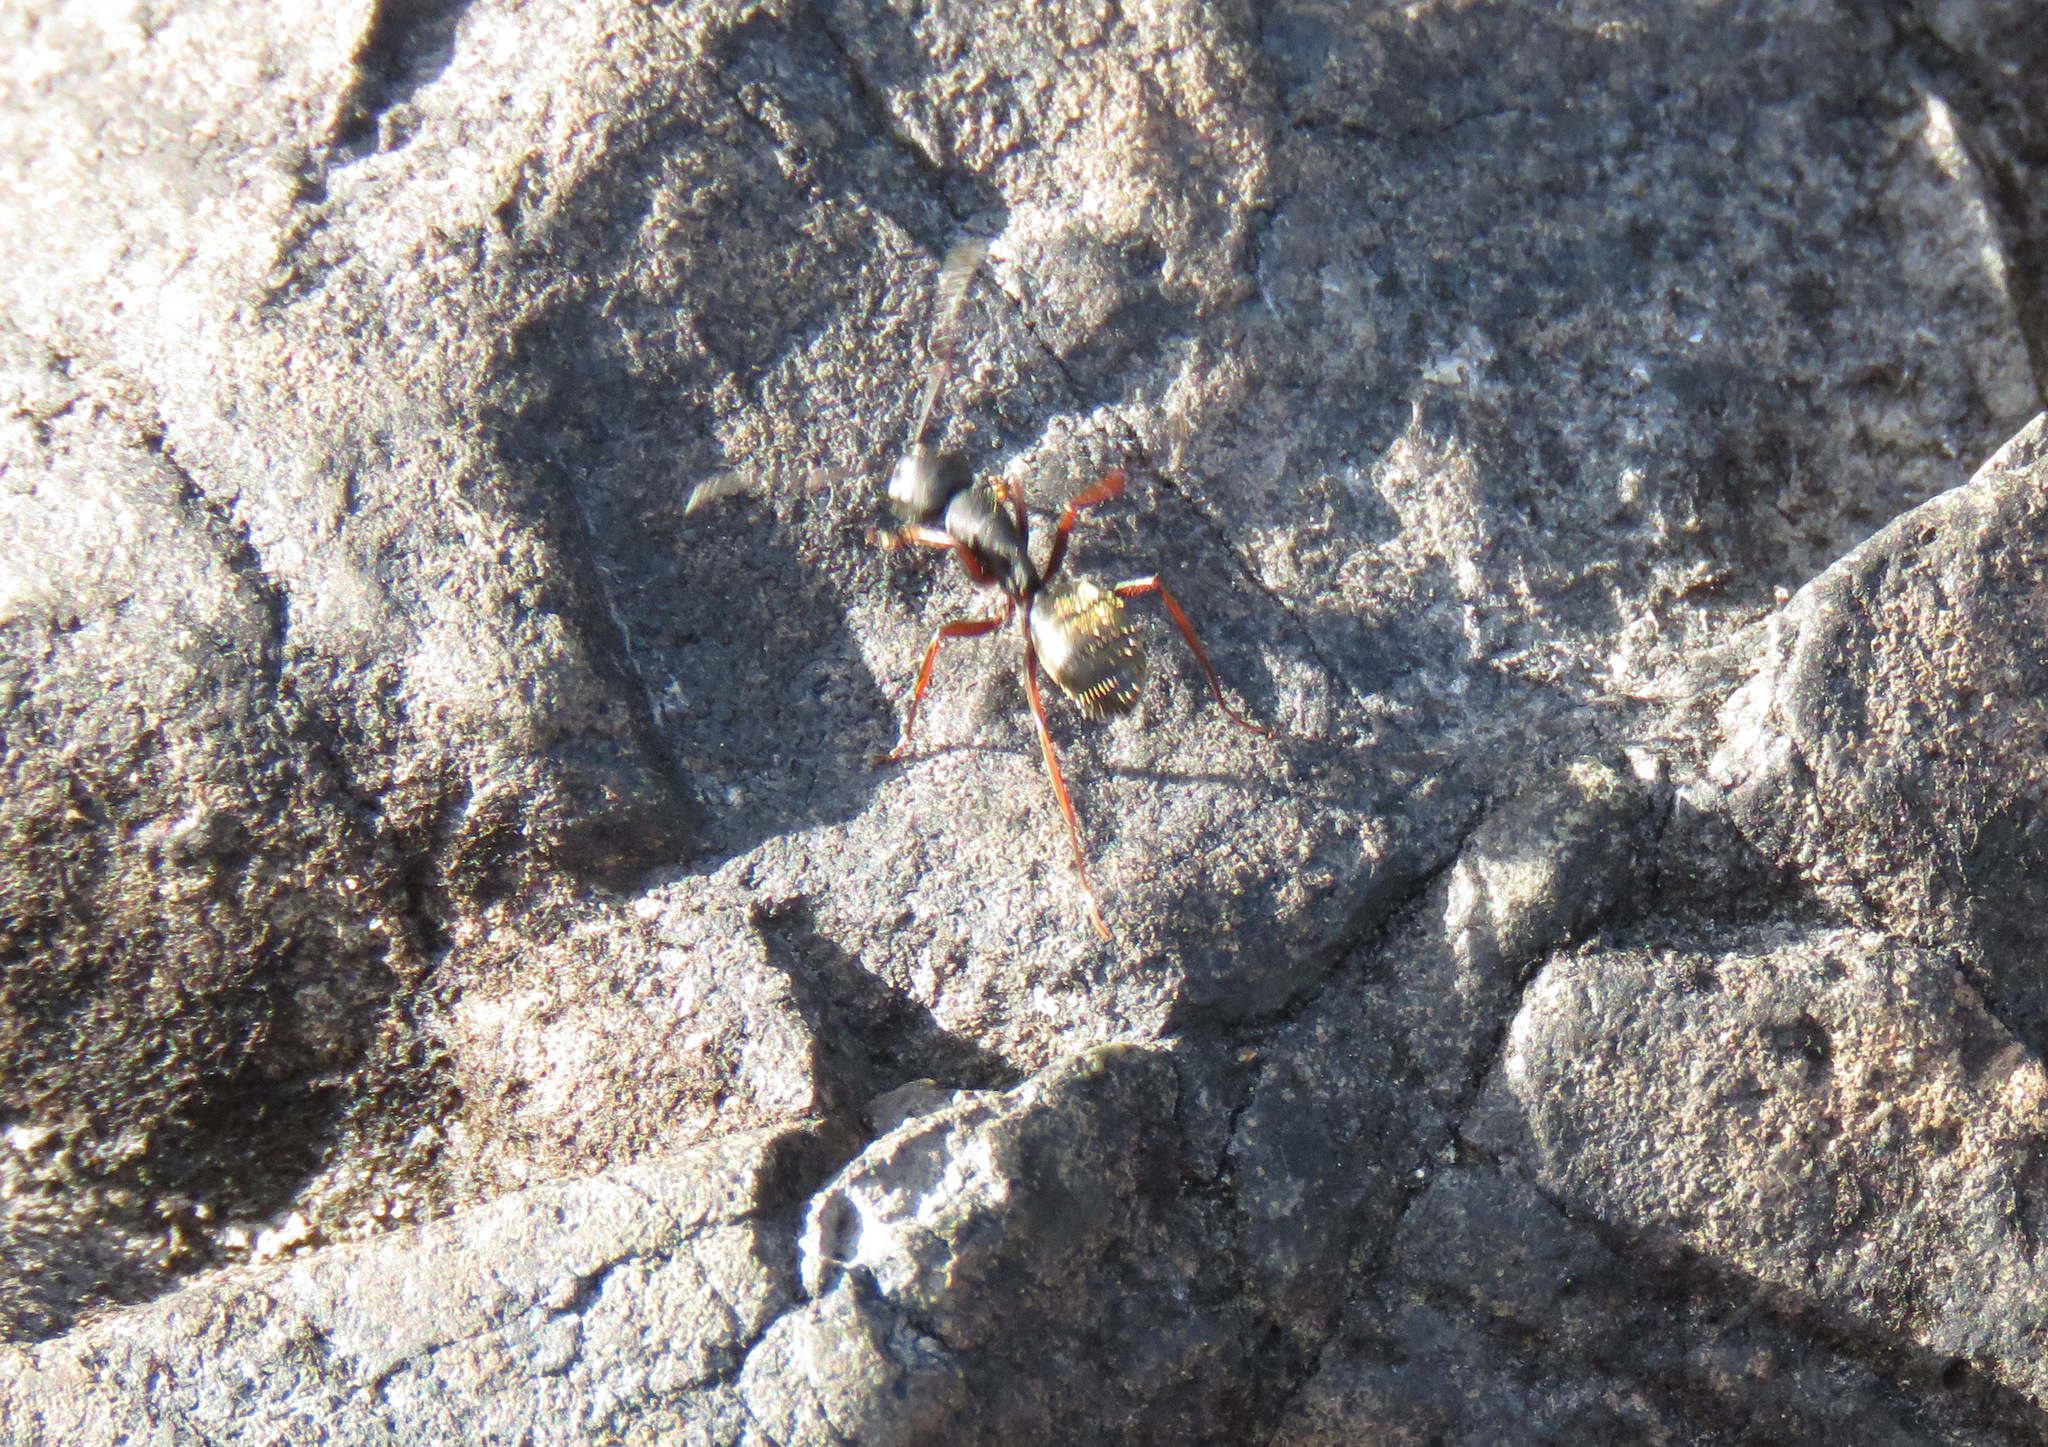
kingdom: Animalia
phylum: Arthropoda
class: Insecta
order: Hymenoptera
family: Formicidae
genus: Camponotus
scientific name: Camponotus modoc
